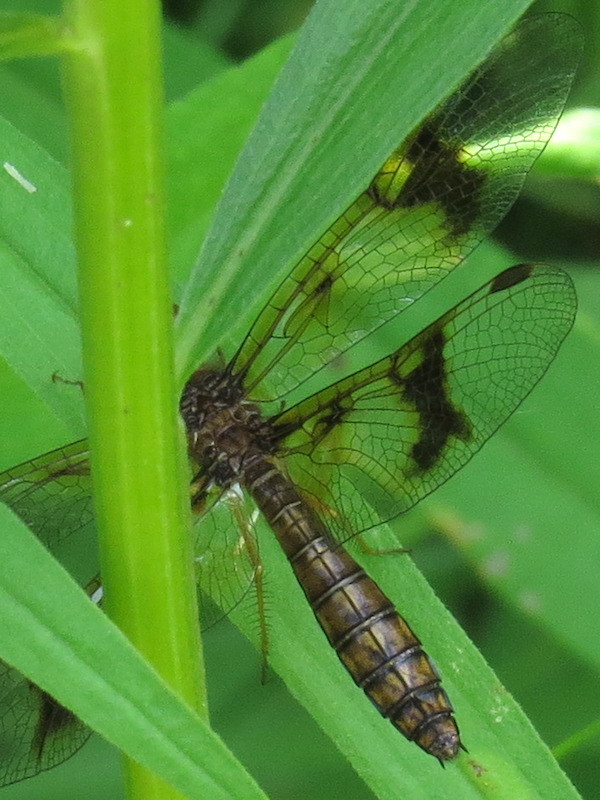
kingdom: Animalia
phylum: Arthropoda
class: Insecta
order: Odonata
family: Libellulidae
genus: Perithemis
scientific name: Perithemis tenera
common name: Eastern amberwing
